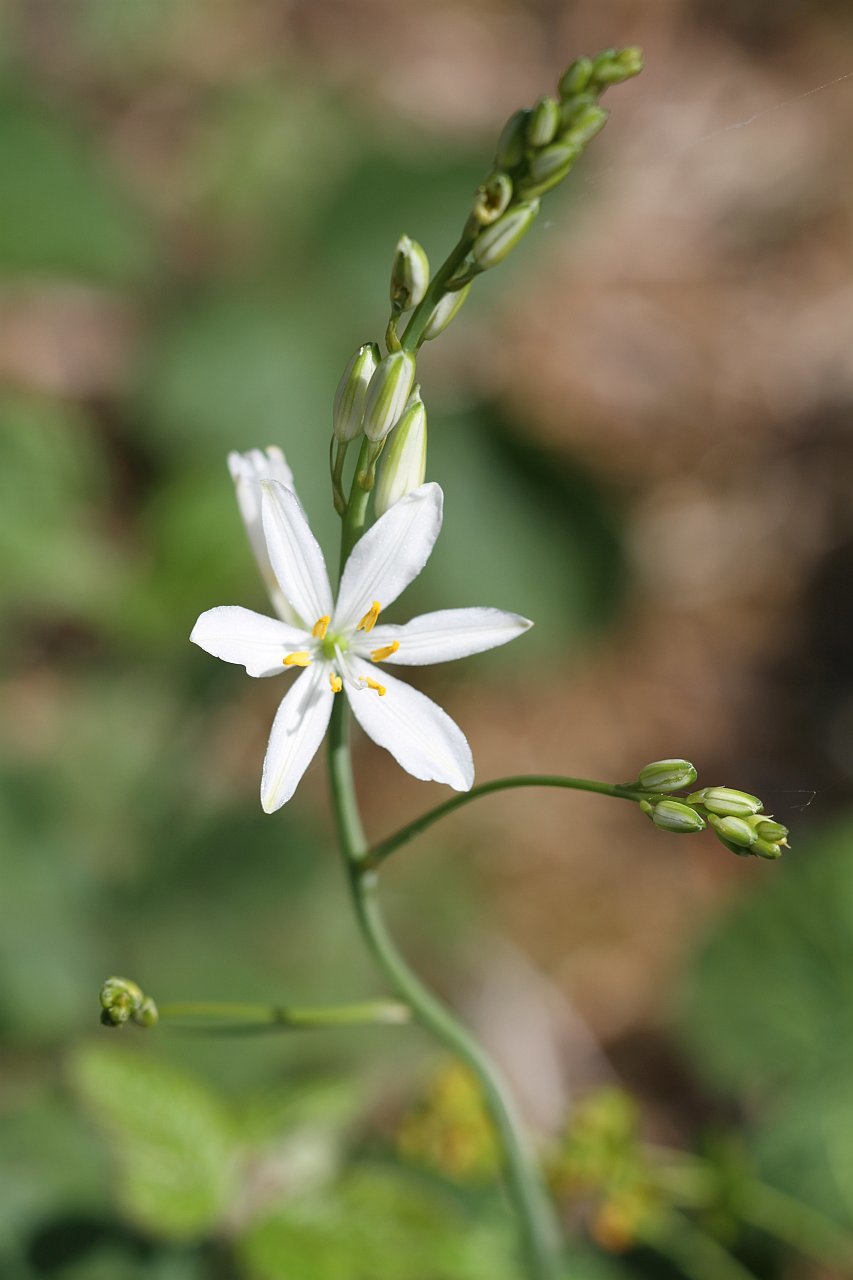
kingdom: Plantae
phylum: Tracheophyta
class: Liliopsida
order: Asparagales
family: Asparagaceae
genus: Anthericum
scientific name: Anthericum liliago
